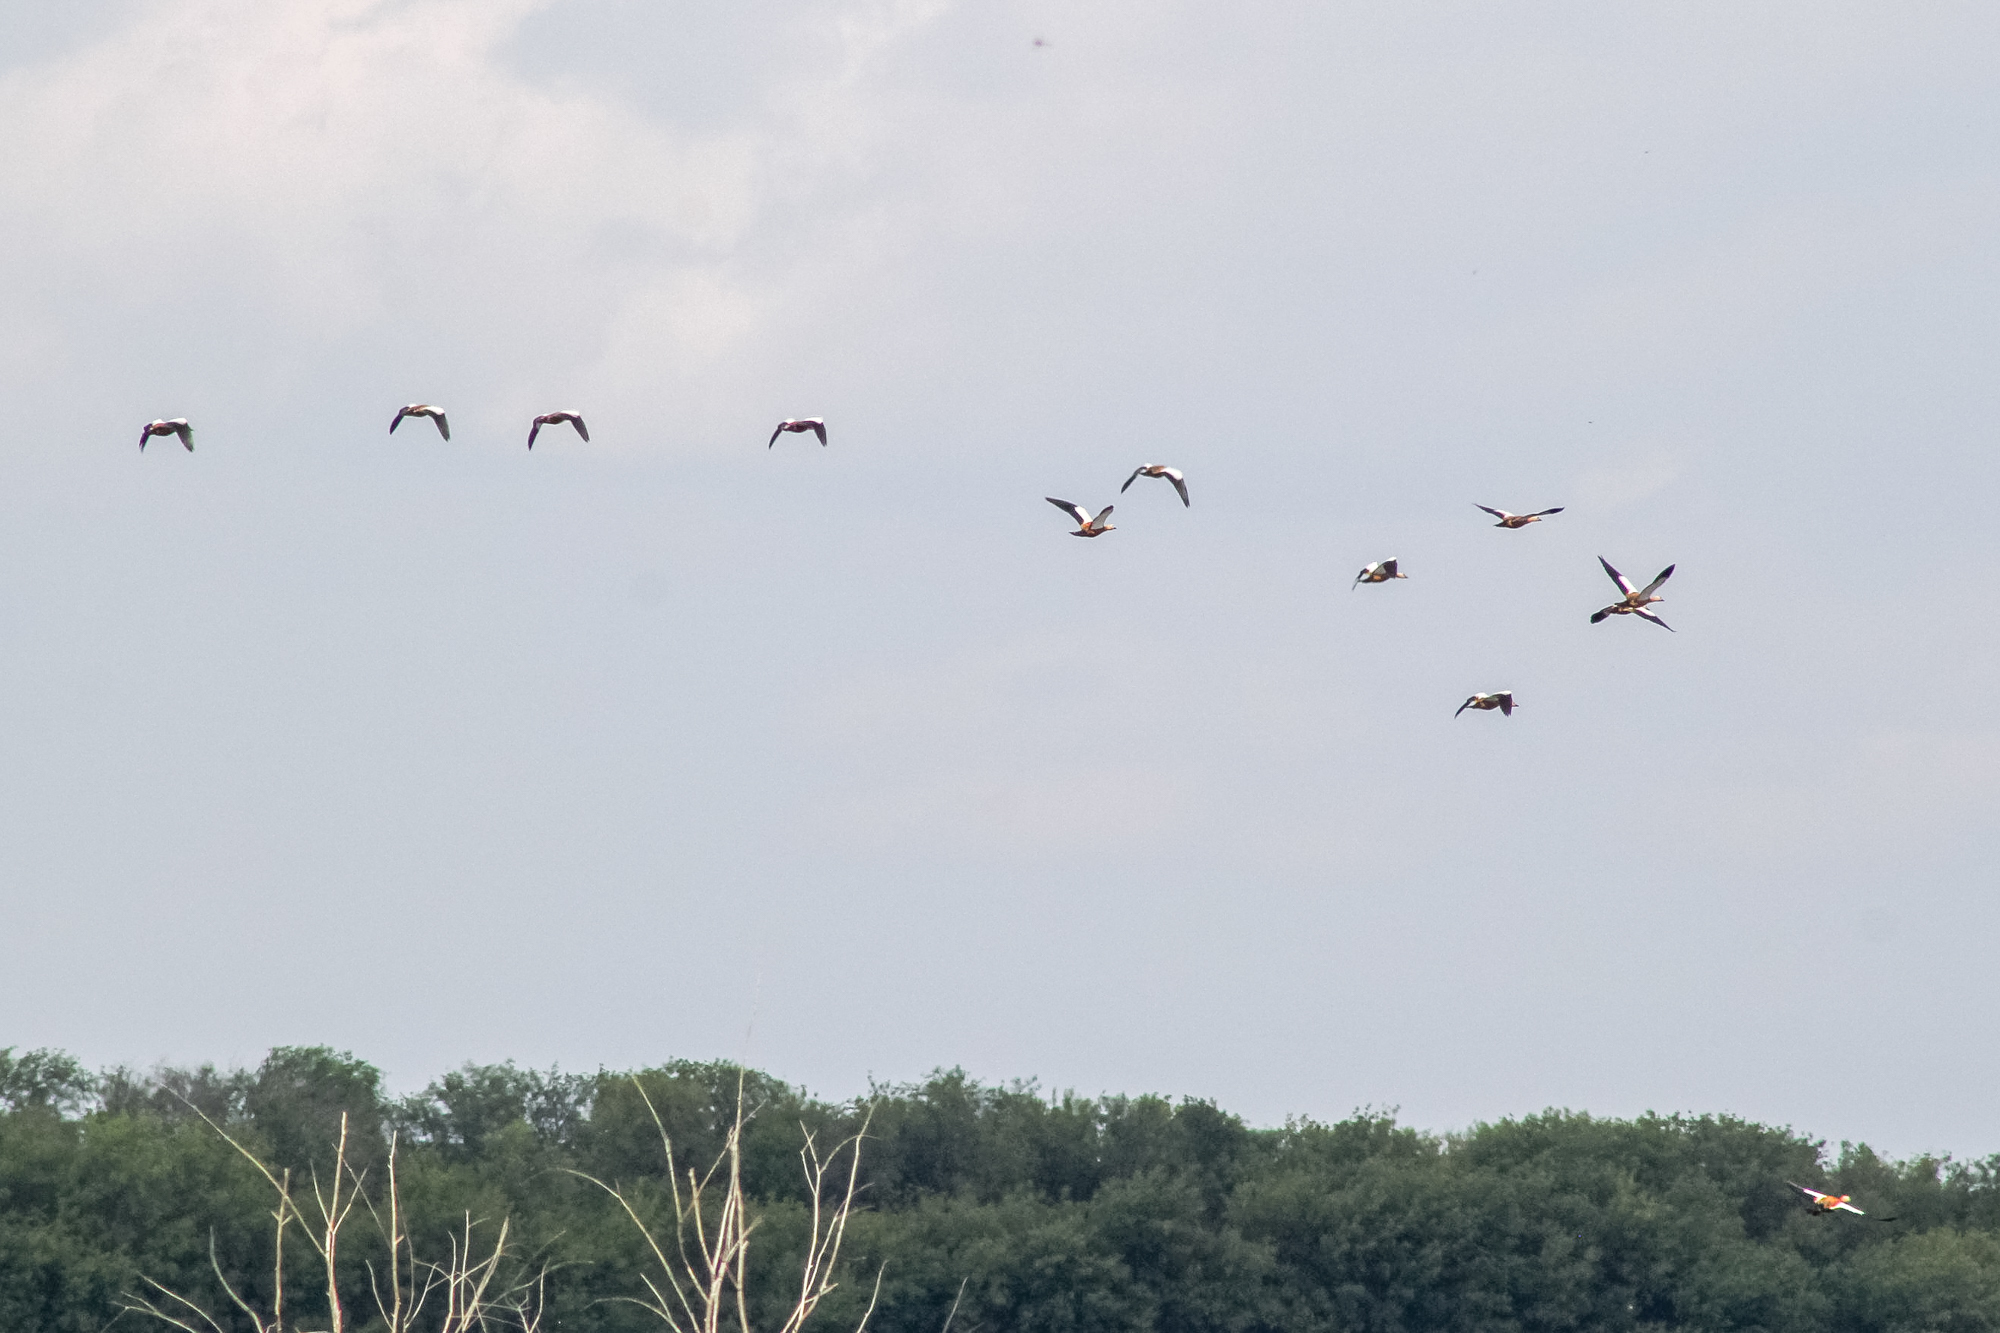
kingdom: Animalia
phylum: Chordata
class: Aves
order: Anseriformes
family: Anatidae
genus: Tadorna
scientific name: Tadorna ferruginea
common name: Ruddy shelduck
